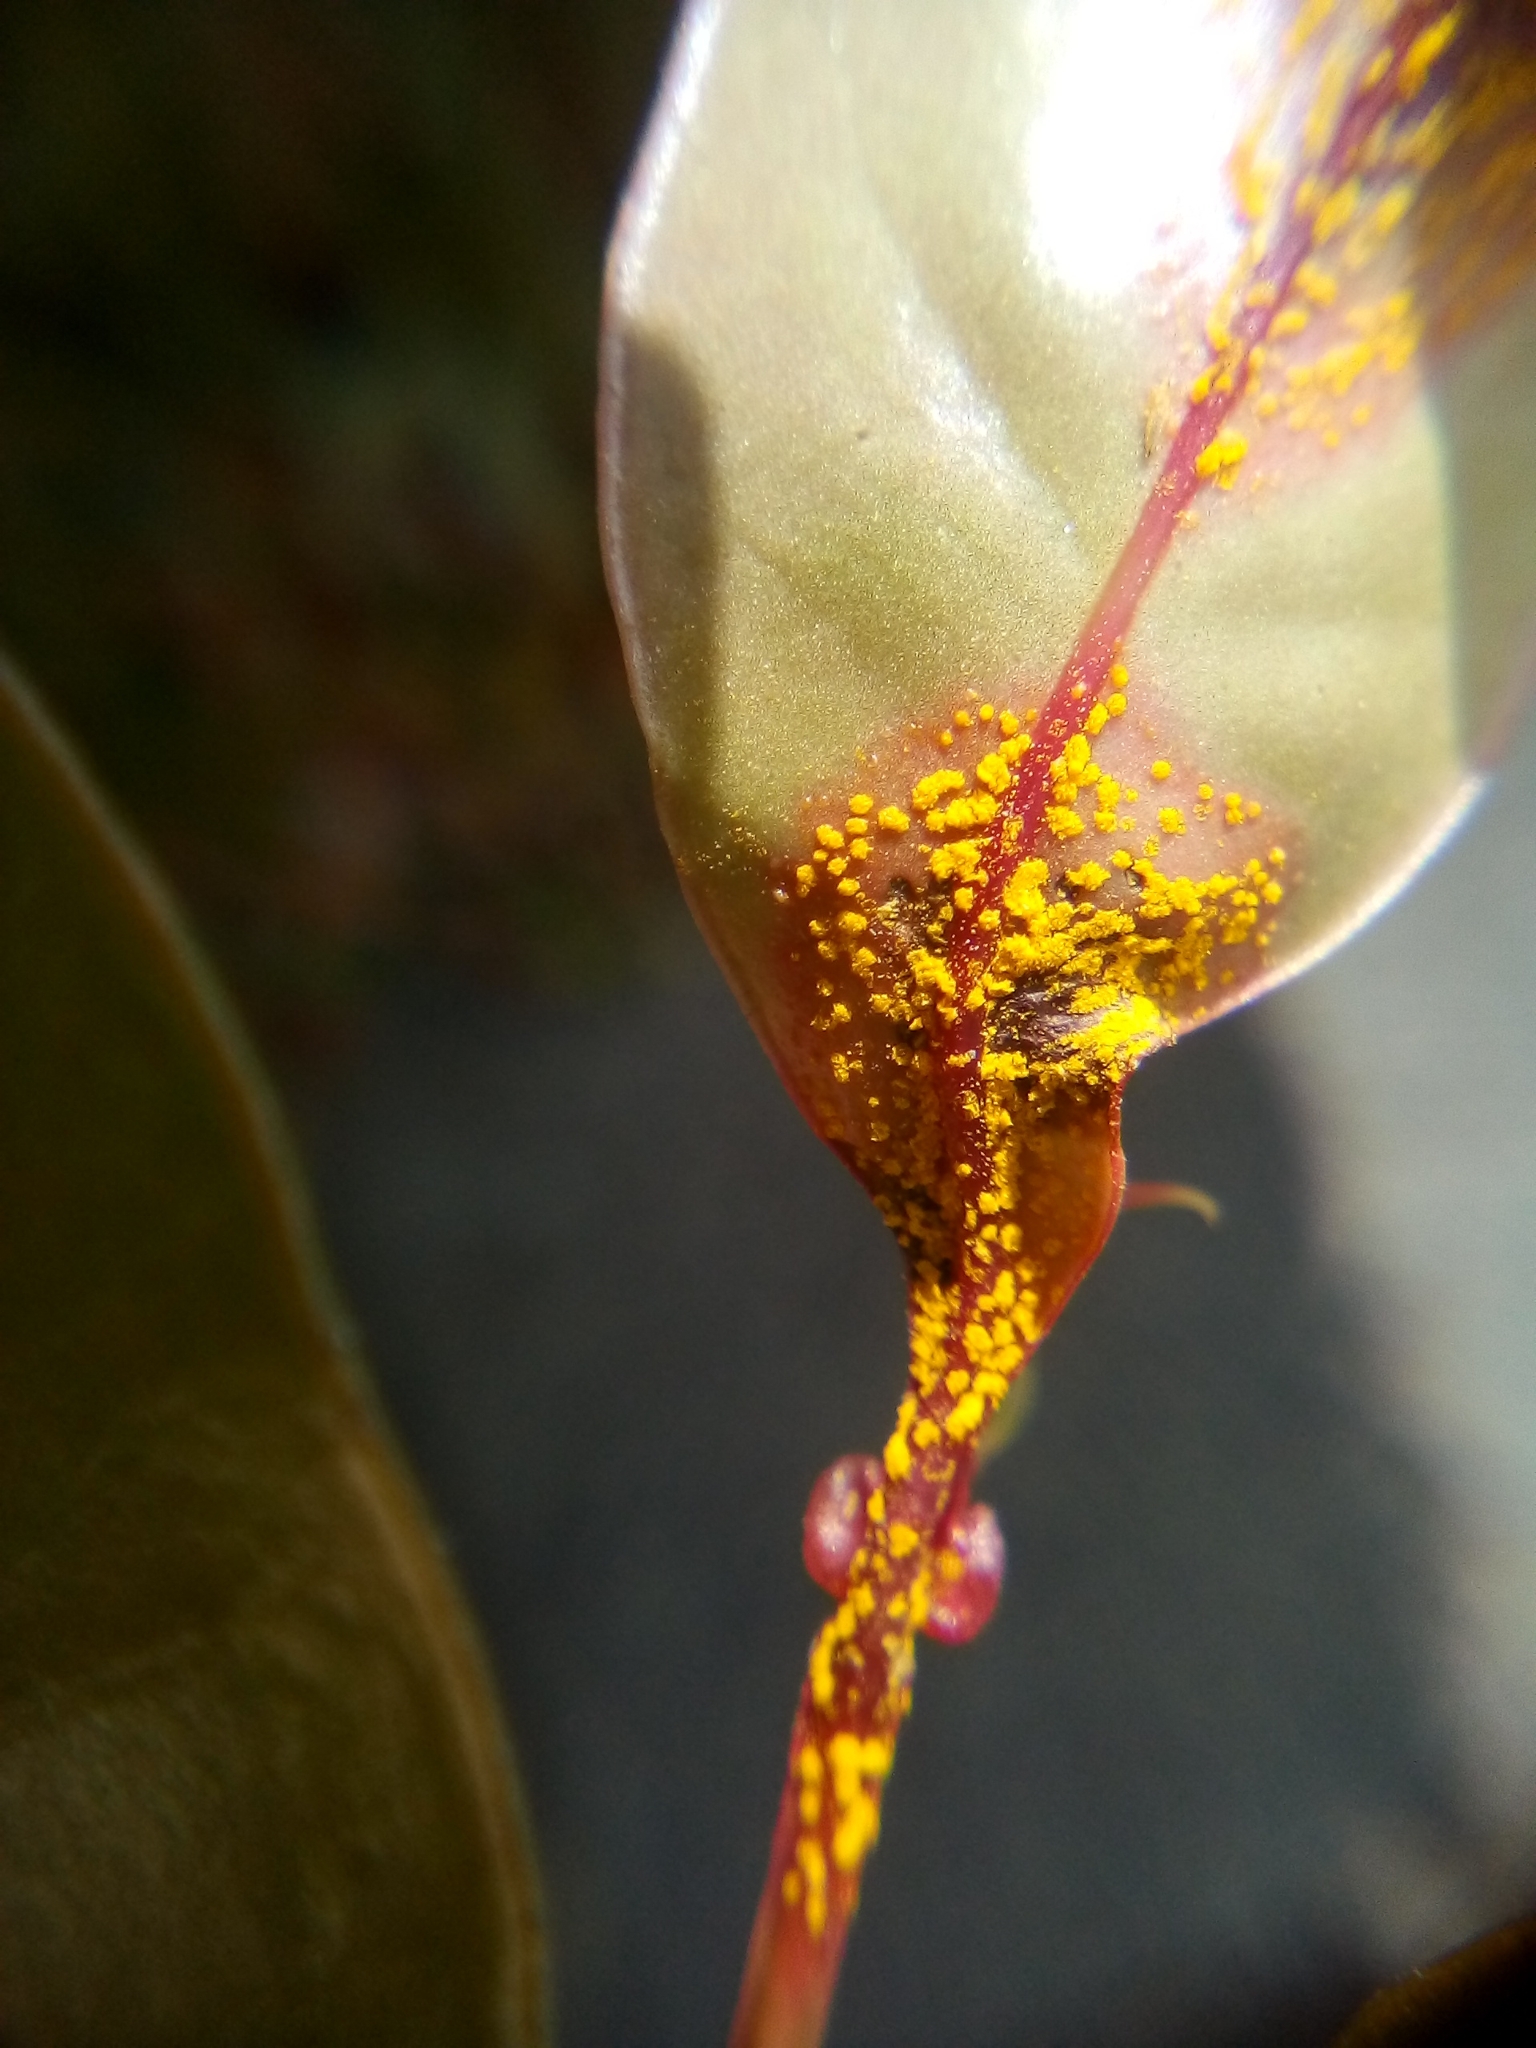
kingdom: Fungi
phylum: Basidiomycota
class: Pucciniomycetes
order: Pucciniales
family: Sphaerophragmiaceae
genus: Austropuccinia
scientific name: Austropuccinia psidii
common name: Myrtle rust
